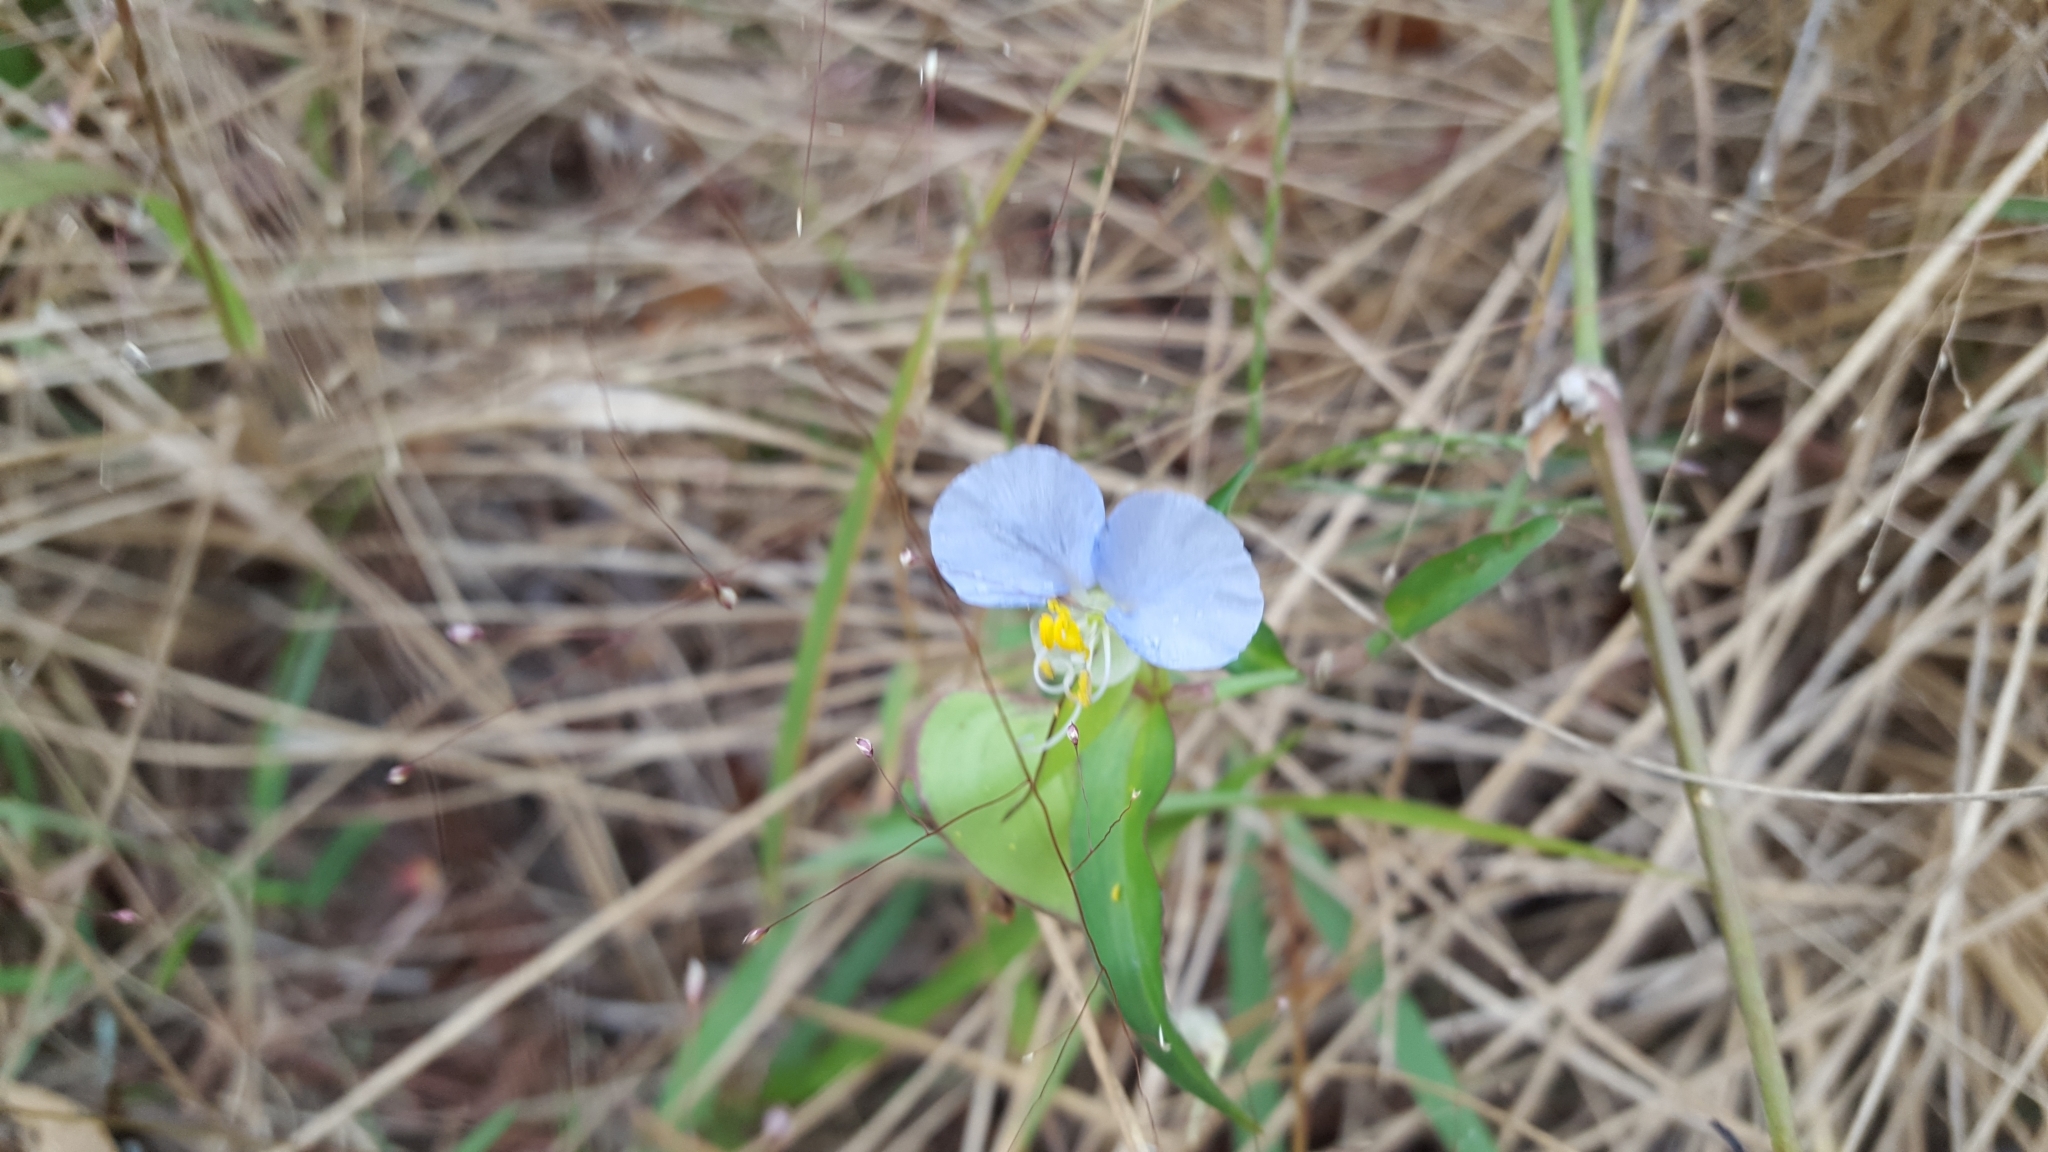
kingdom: Plantae
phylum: Tracheophyta
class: Liliopsida
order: Commelinales
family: Commelinaceae
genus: Commelina
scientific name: Commelina erecta
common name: Blousel blommetjie
